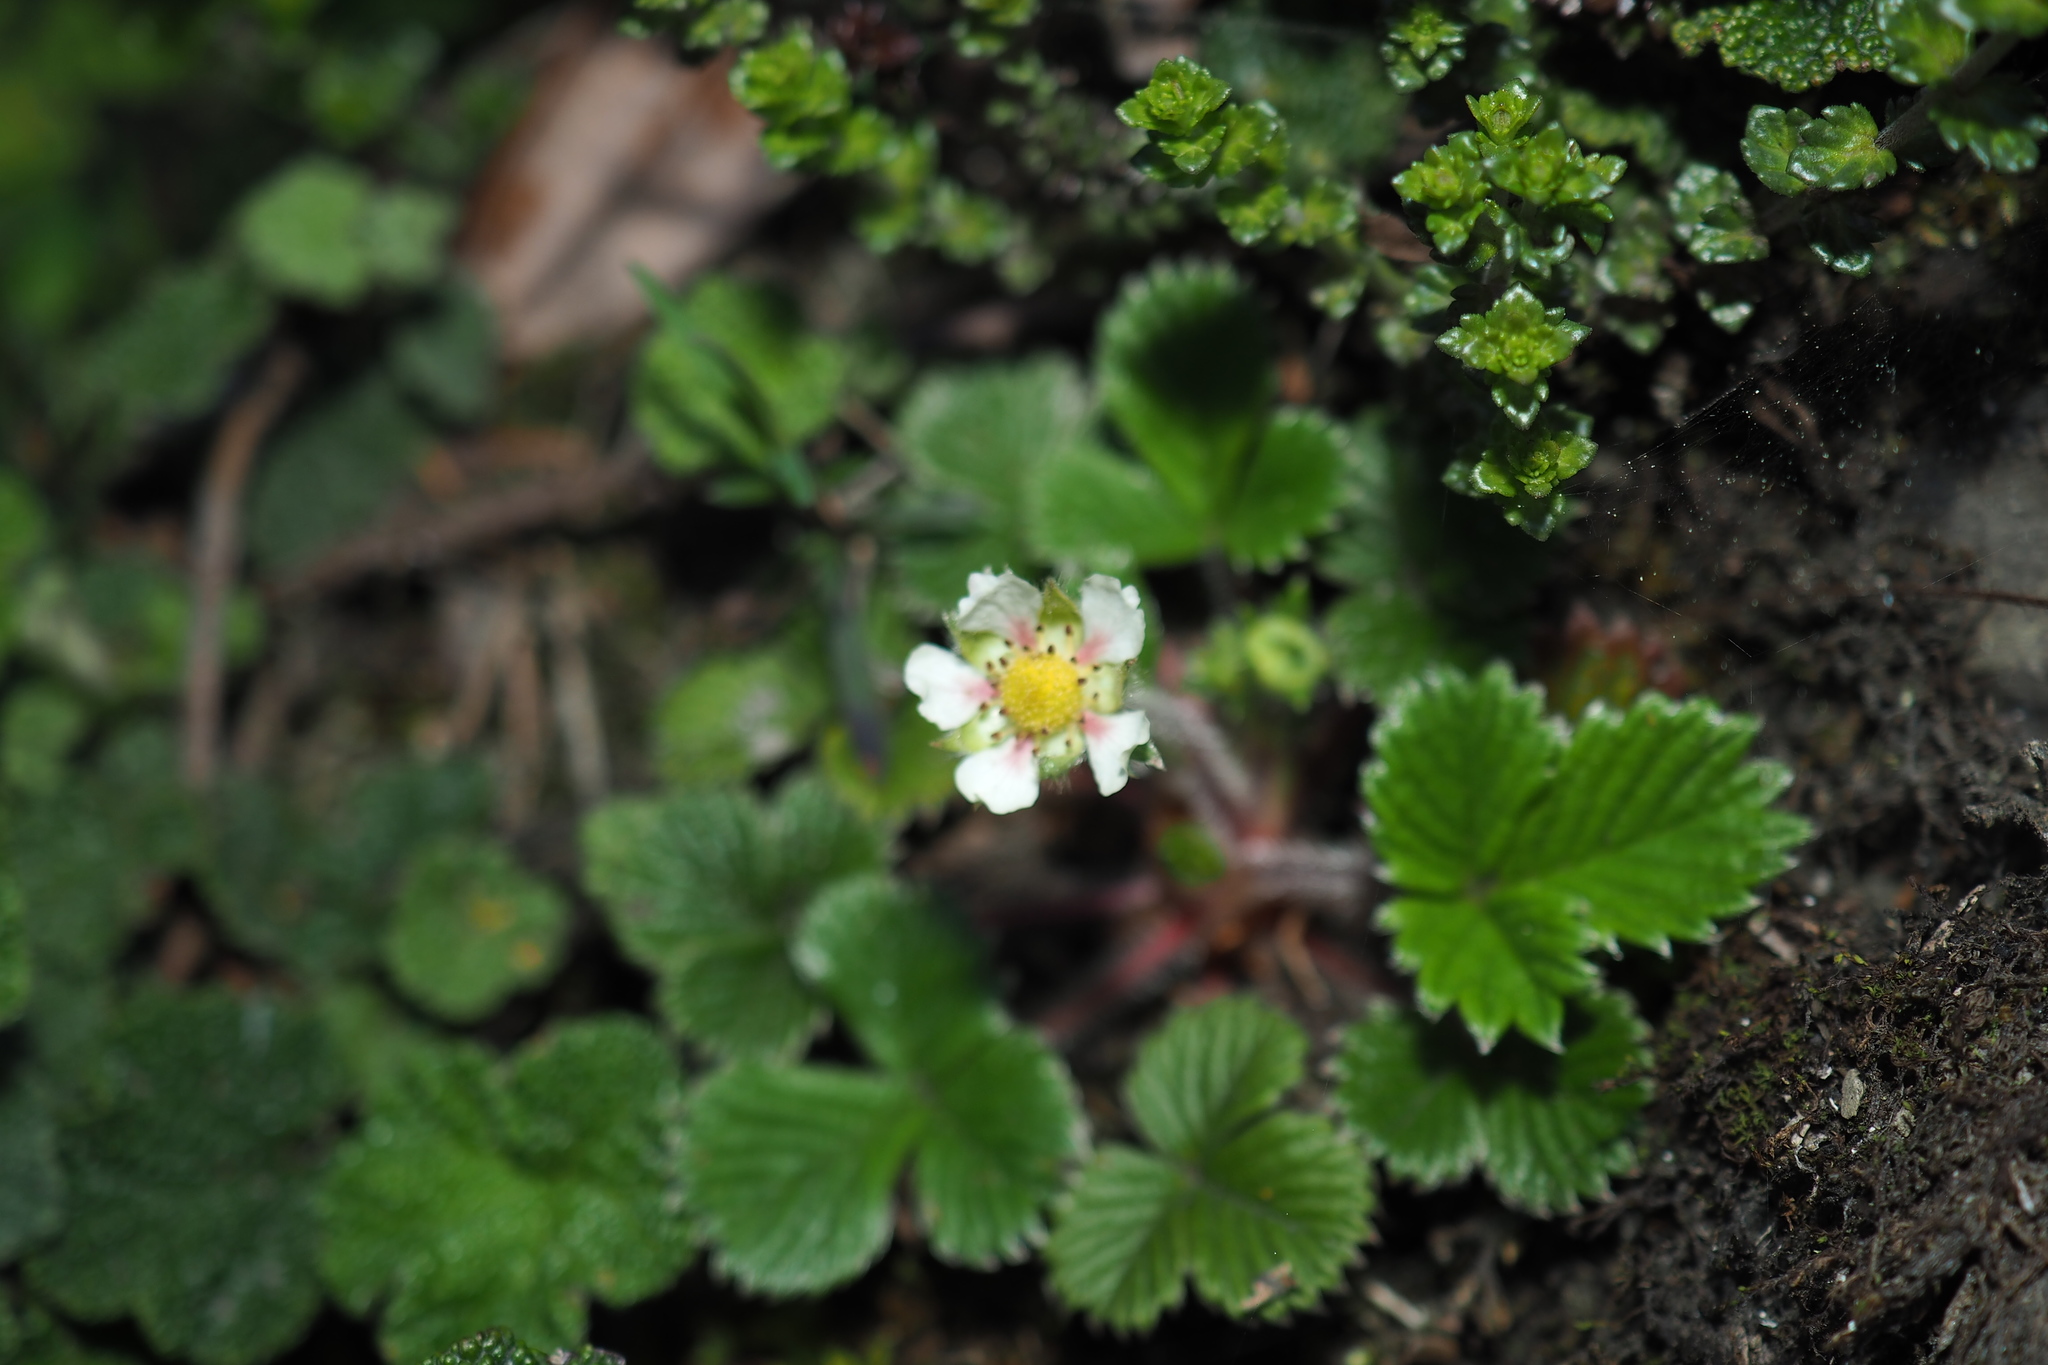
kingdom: Plantae
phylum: Tracheophyta
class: Magnoliopsida
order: Rosales
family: Rosaceae
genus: Fragaria
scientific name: Fragaria nilgerrensis
